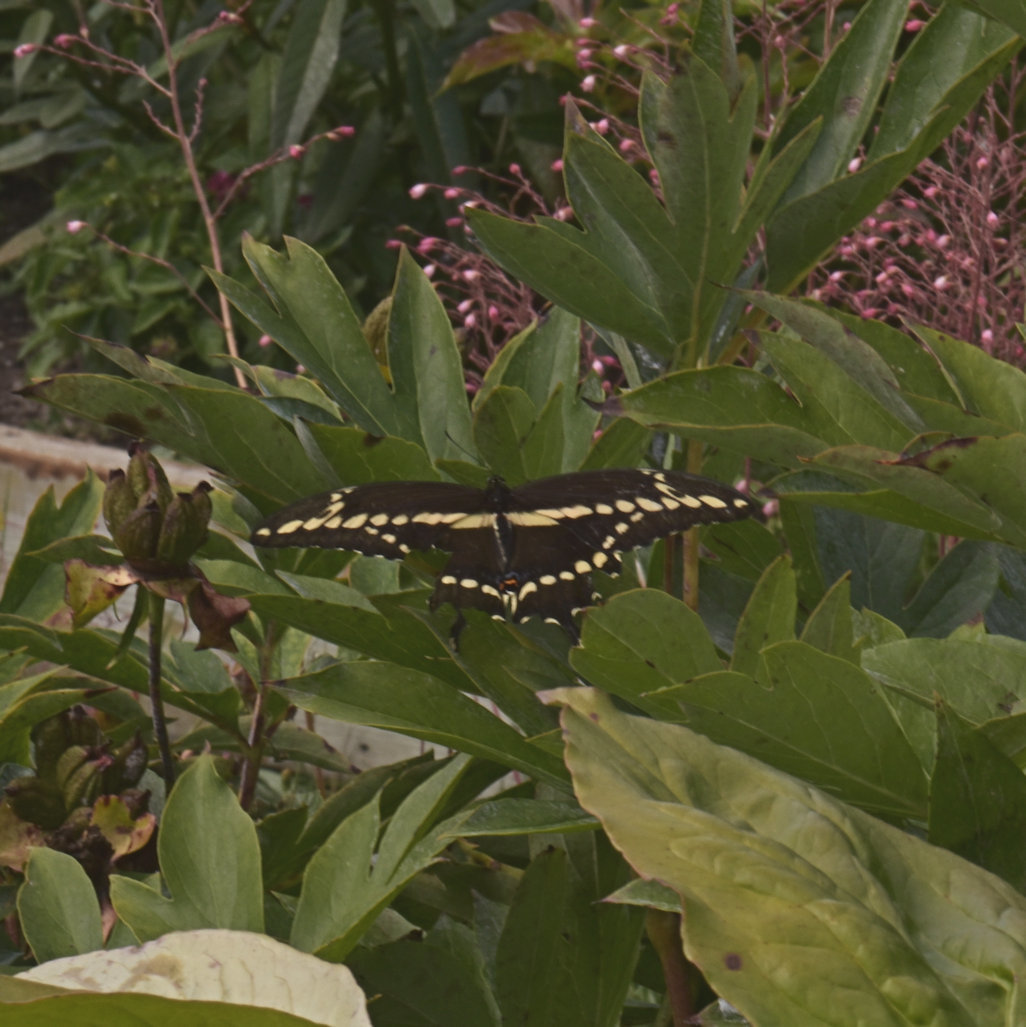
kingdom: Animalia
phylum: Arthropoda
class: Insecta
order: Lepidoptera
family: Papilionidae
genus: Papilio
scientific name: Papilio cresphontes
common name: Giant swallowtail
